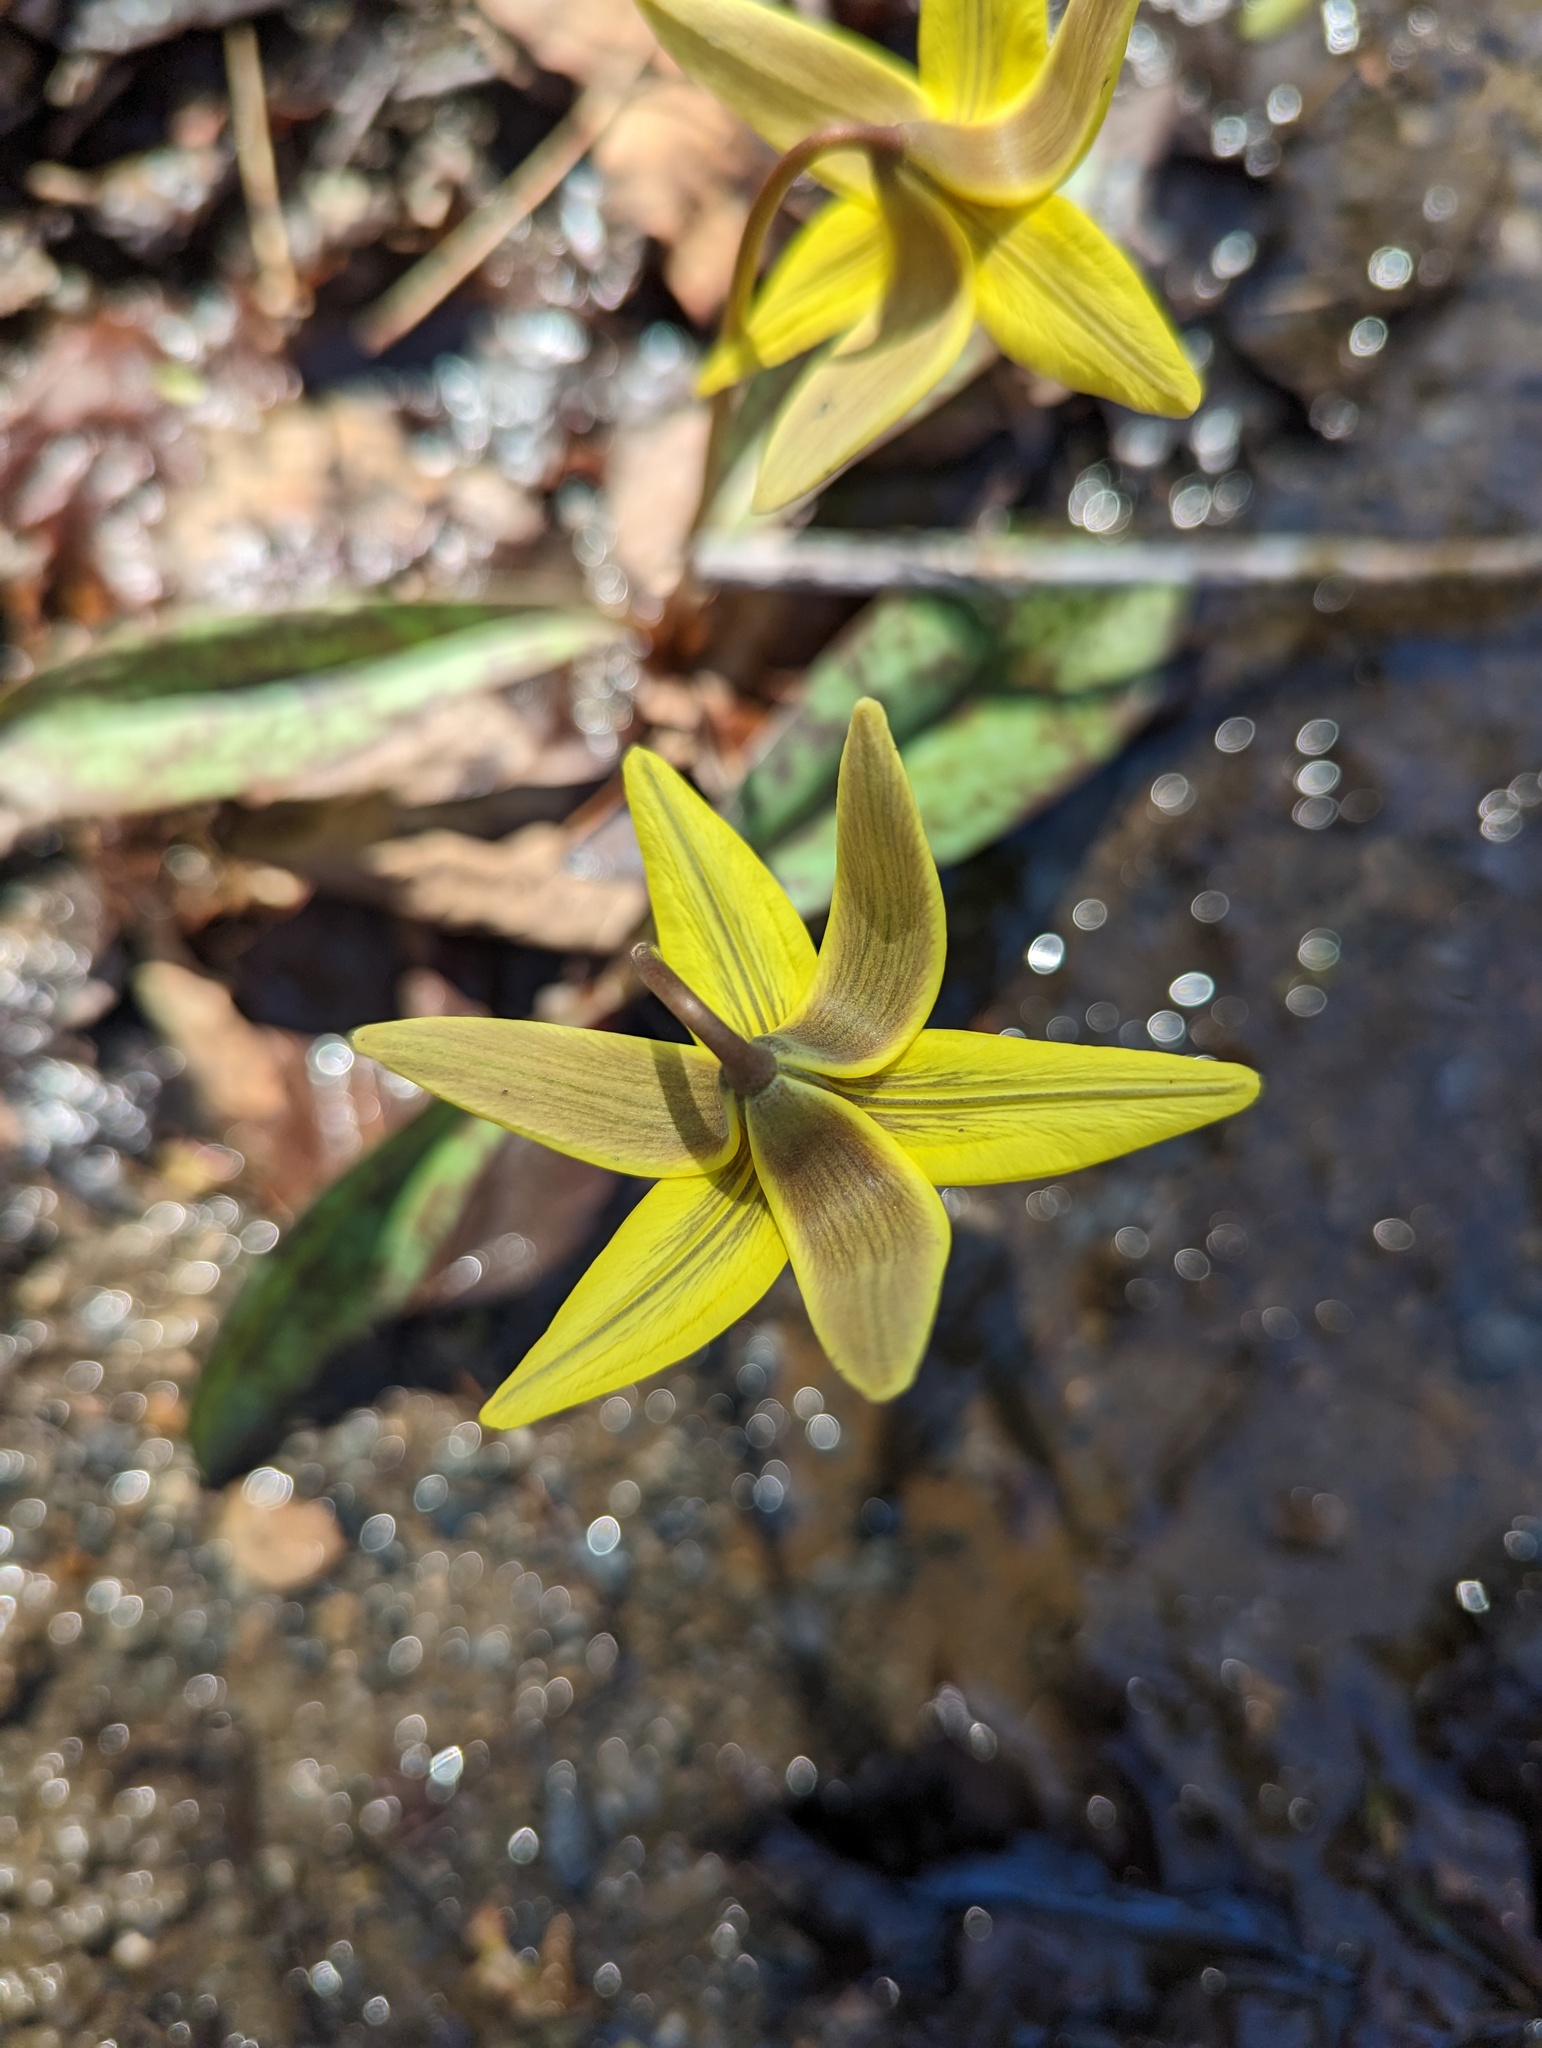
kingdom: Plantae
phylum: Tracheophyta
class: Liliopsida
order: Liliales
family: Liliaceae
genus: Erythronium
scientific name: Erythronium americanum
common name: Yellow adder's-tongue
